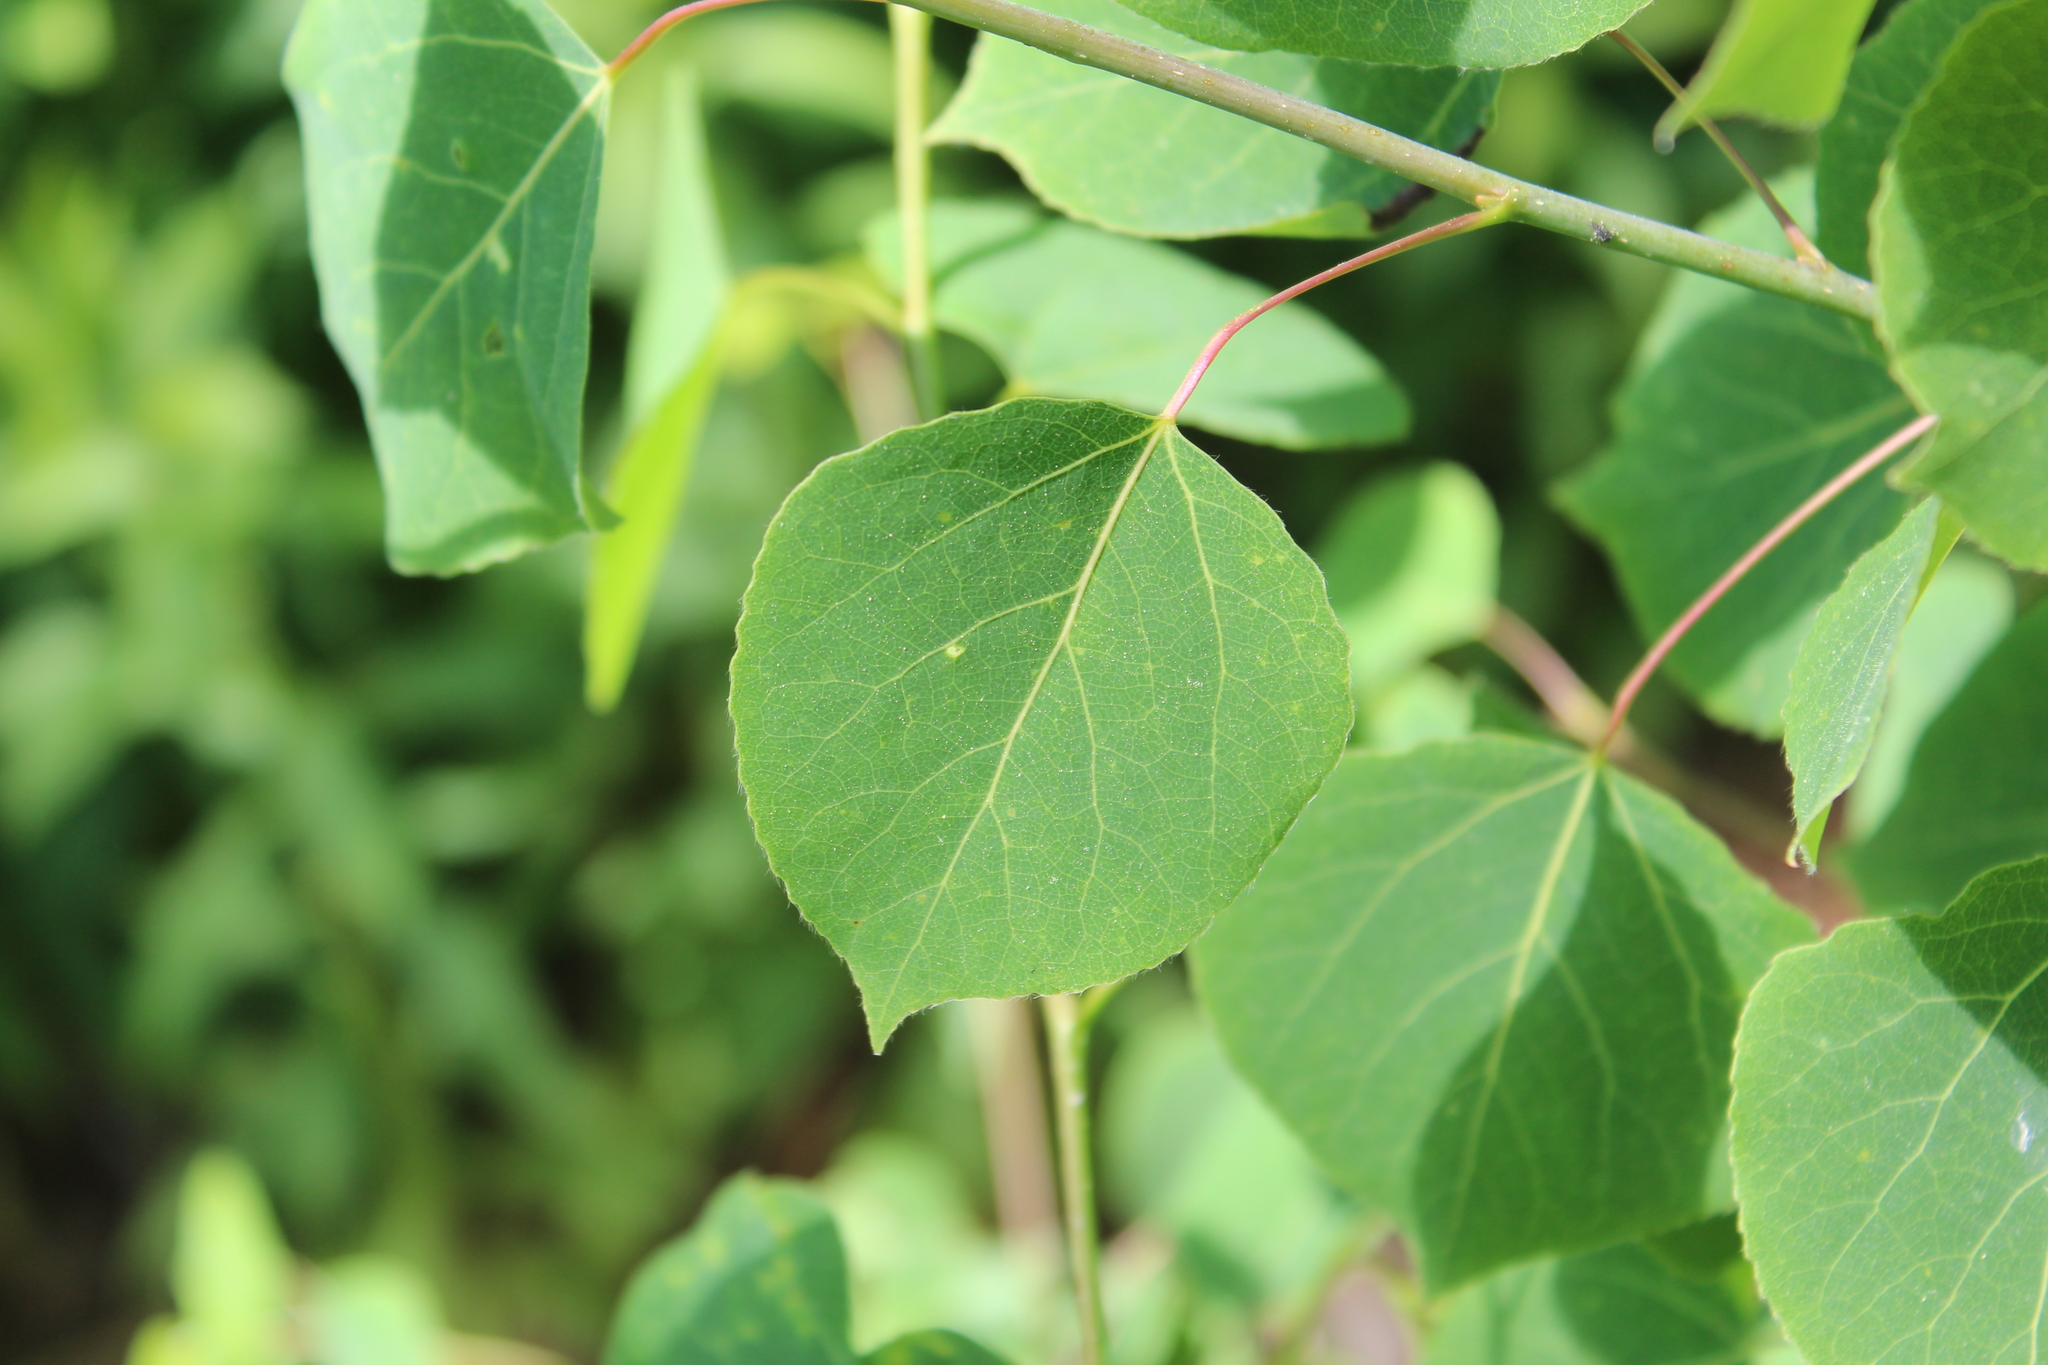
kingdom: Plantae
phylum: Tracheophyta
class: Magnoliopsida
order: Malpighiales
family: Salicaceae
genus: Populus
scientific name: Populus tremuloides
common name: Quaking aspen
